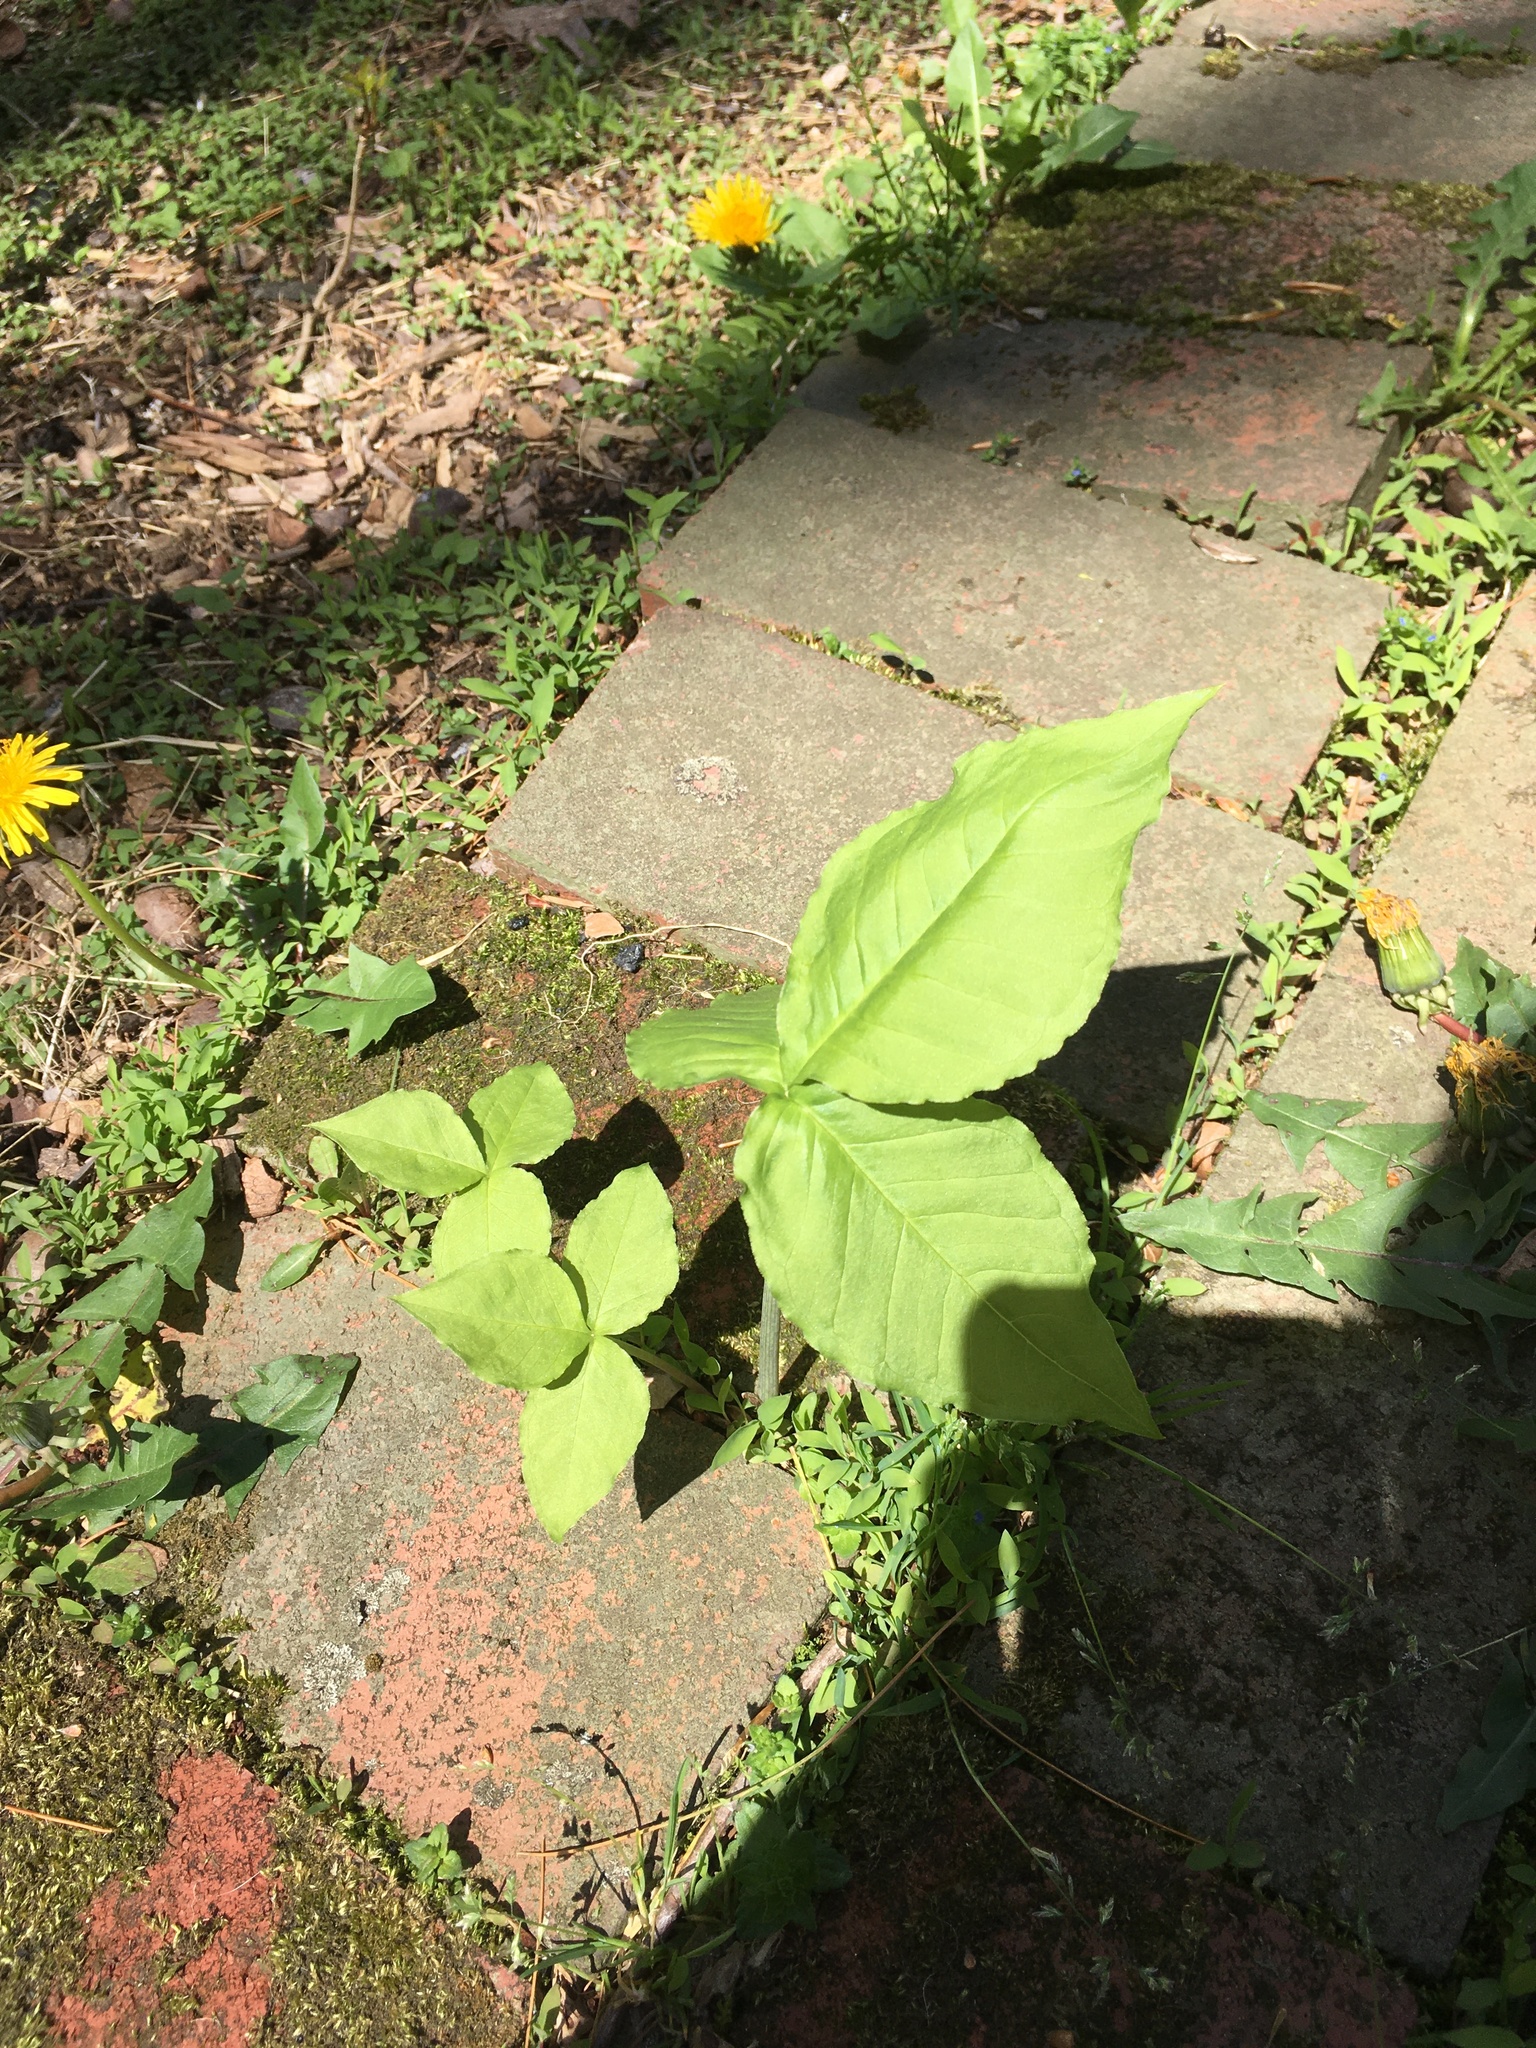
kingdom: Plantae
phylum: Tracheophyta
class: Liliopsida
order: Alismatales
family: Araceae
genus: Arisaema
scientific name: Arisaema triphyllum
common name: Jack-in-the-pulpit
